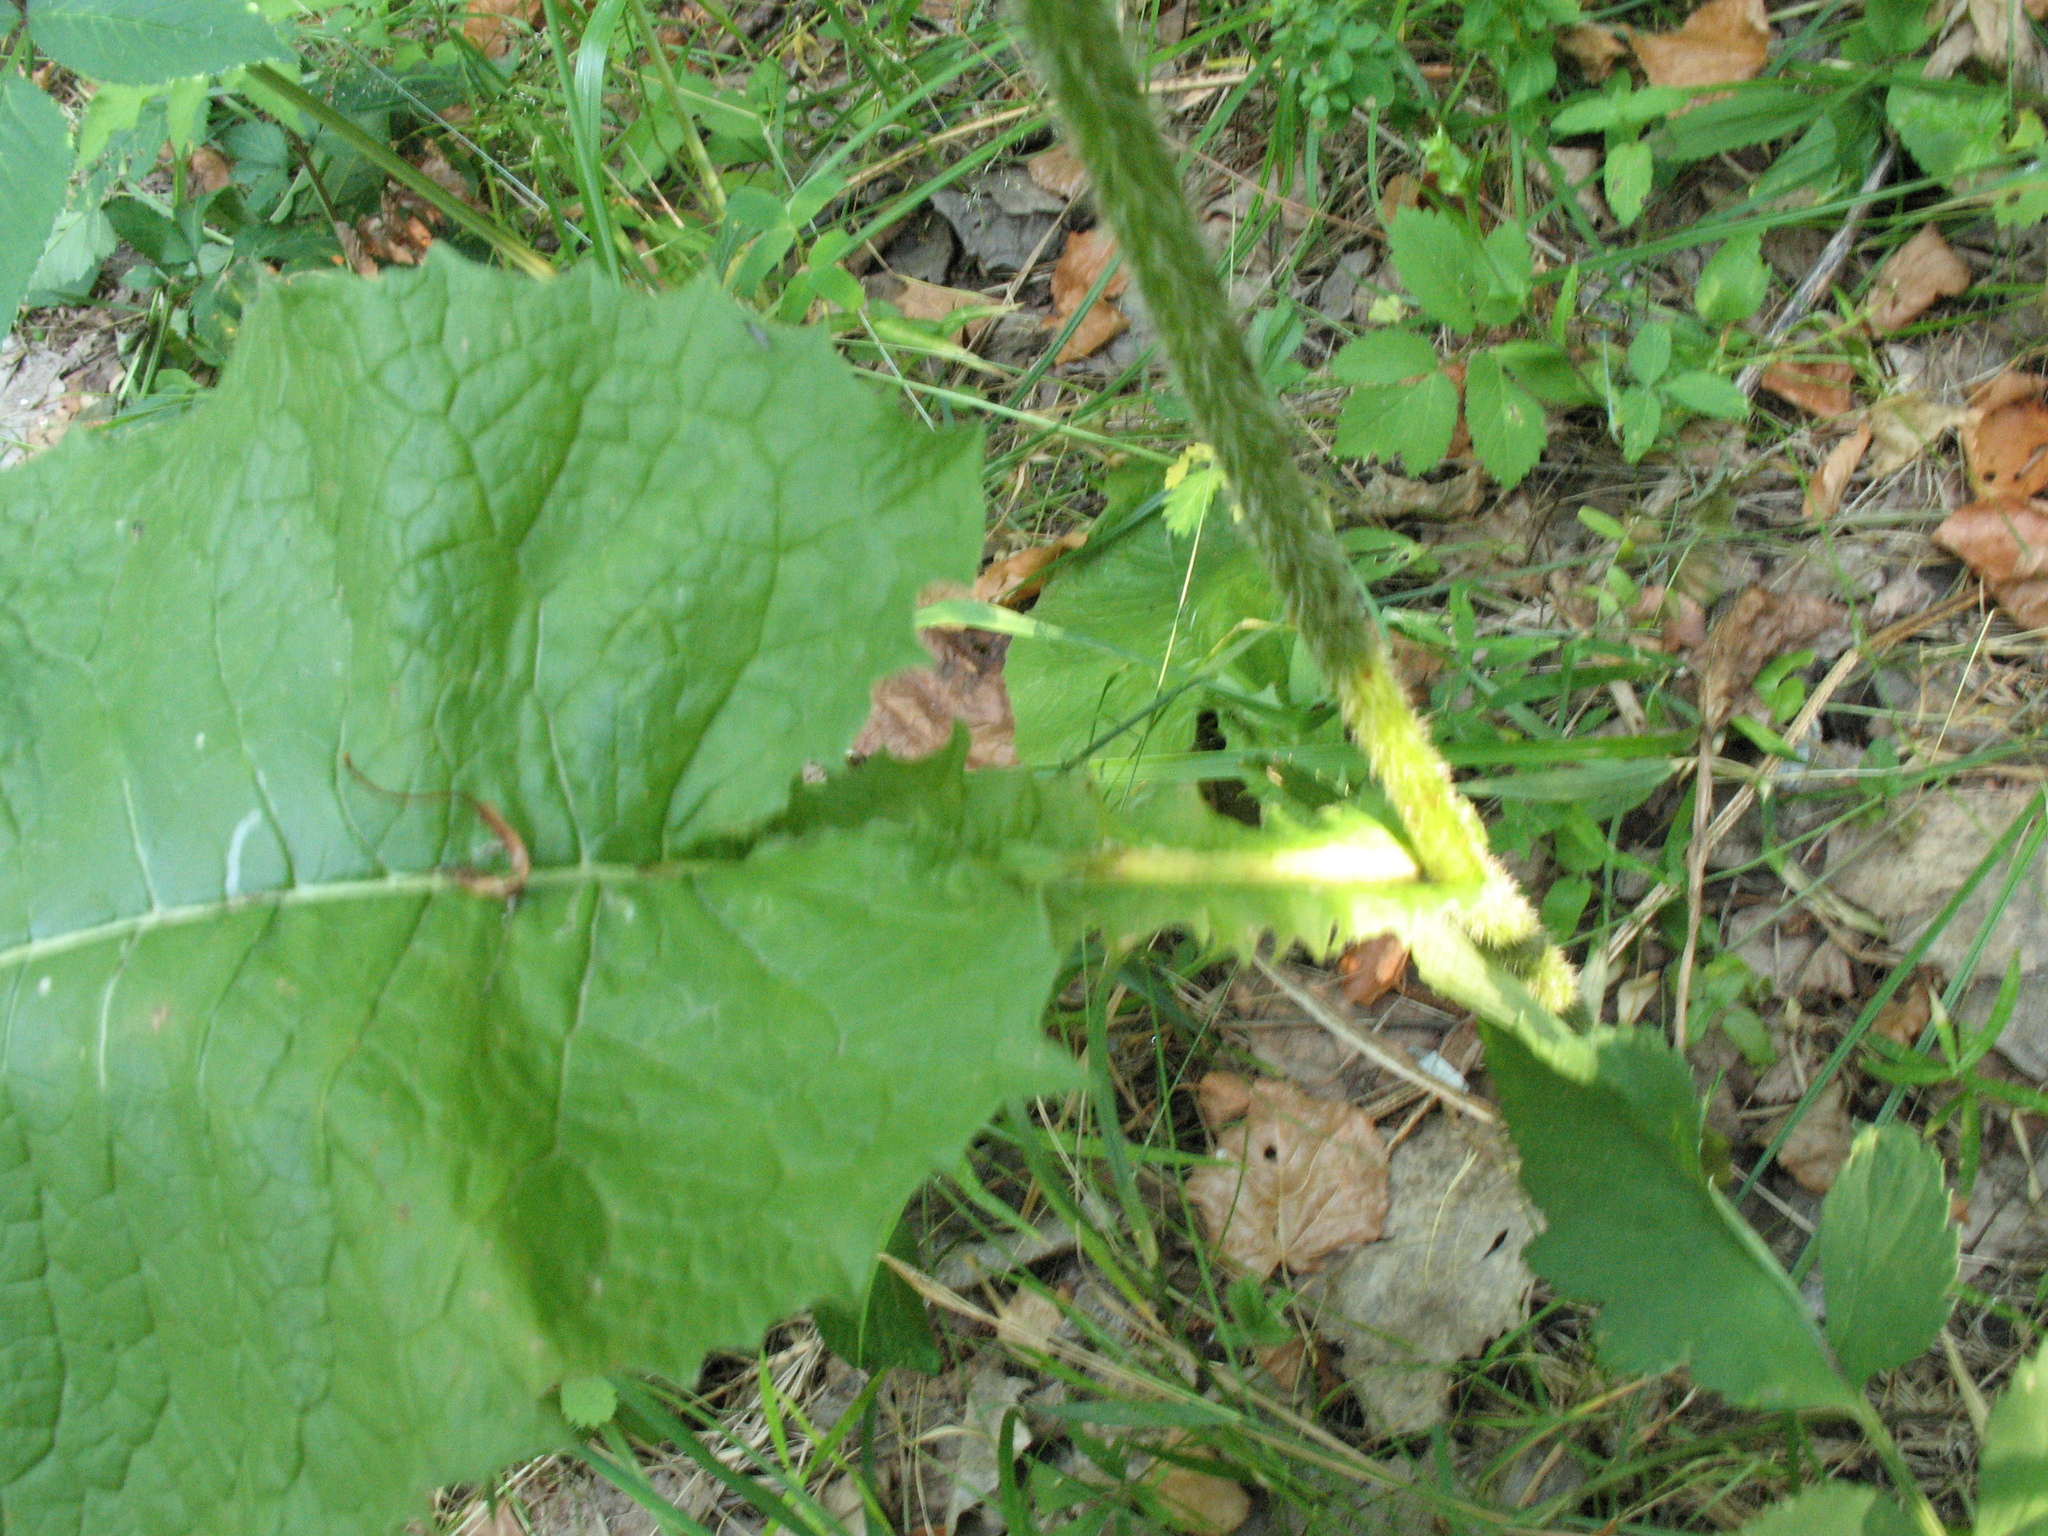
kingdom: Plantae
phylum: Tracheophyta
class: Magnoliopsida
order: Asterales
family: Asteraceae
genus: Crepis
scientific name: Crepis sibirica
